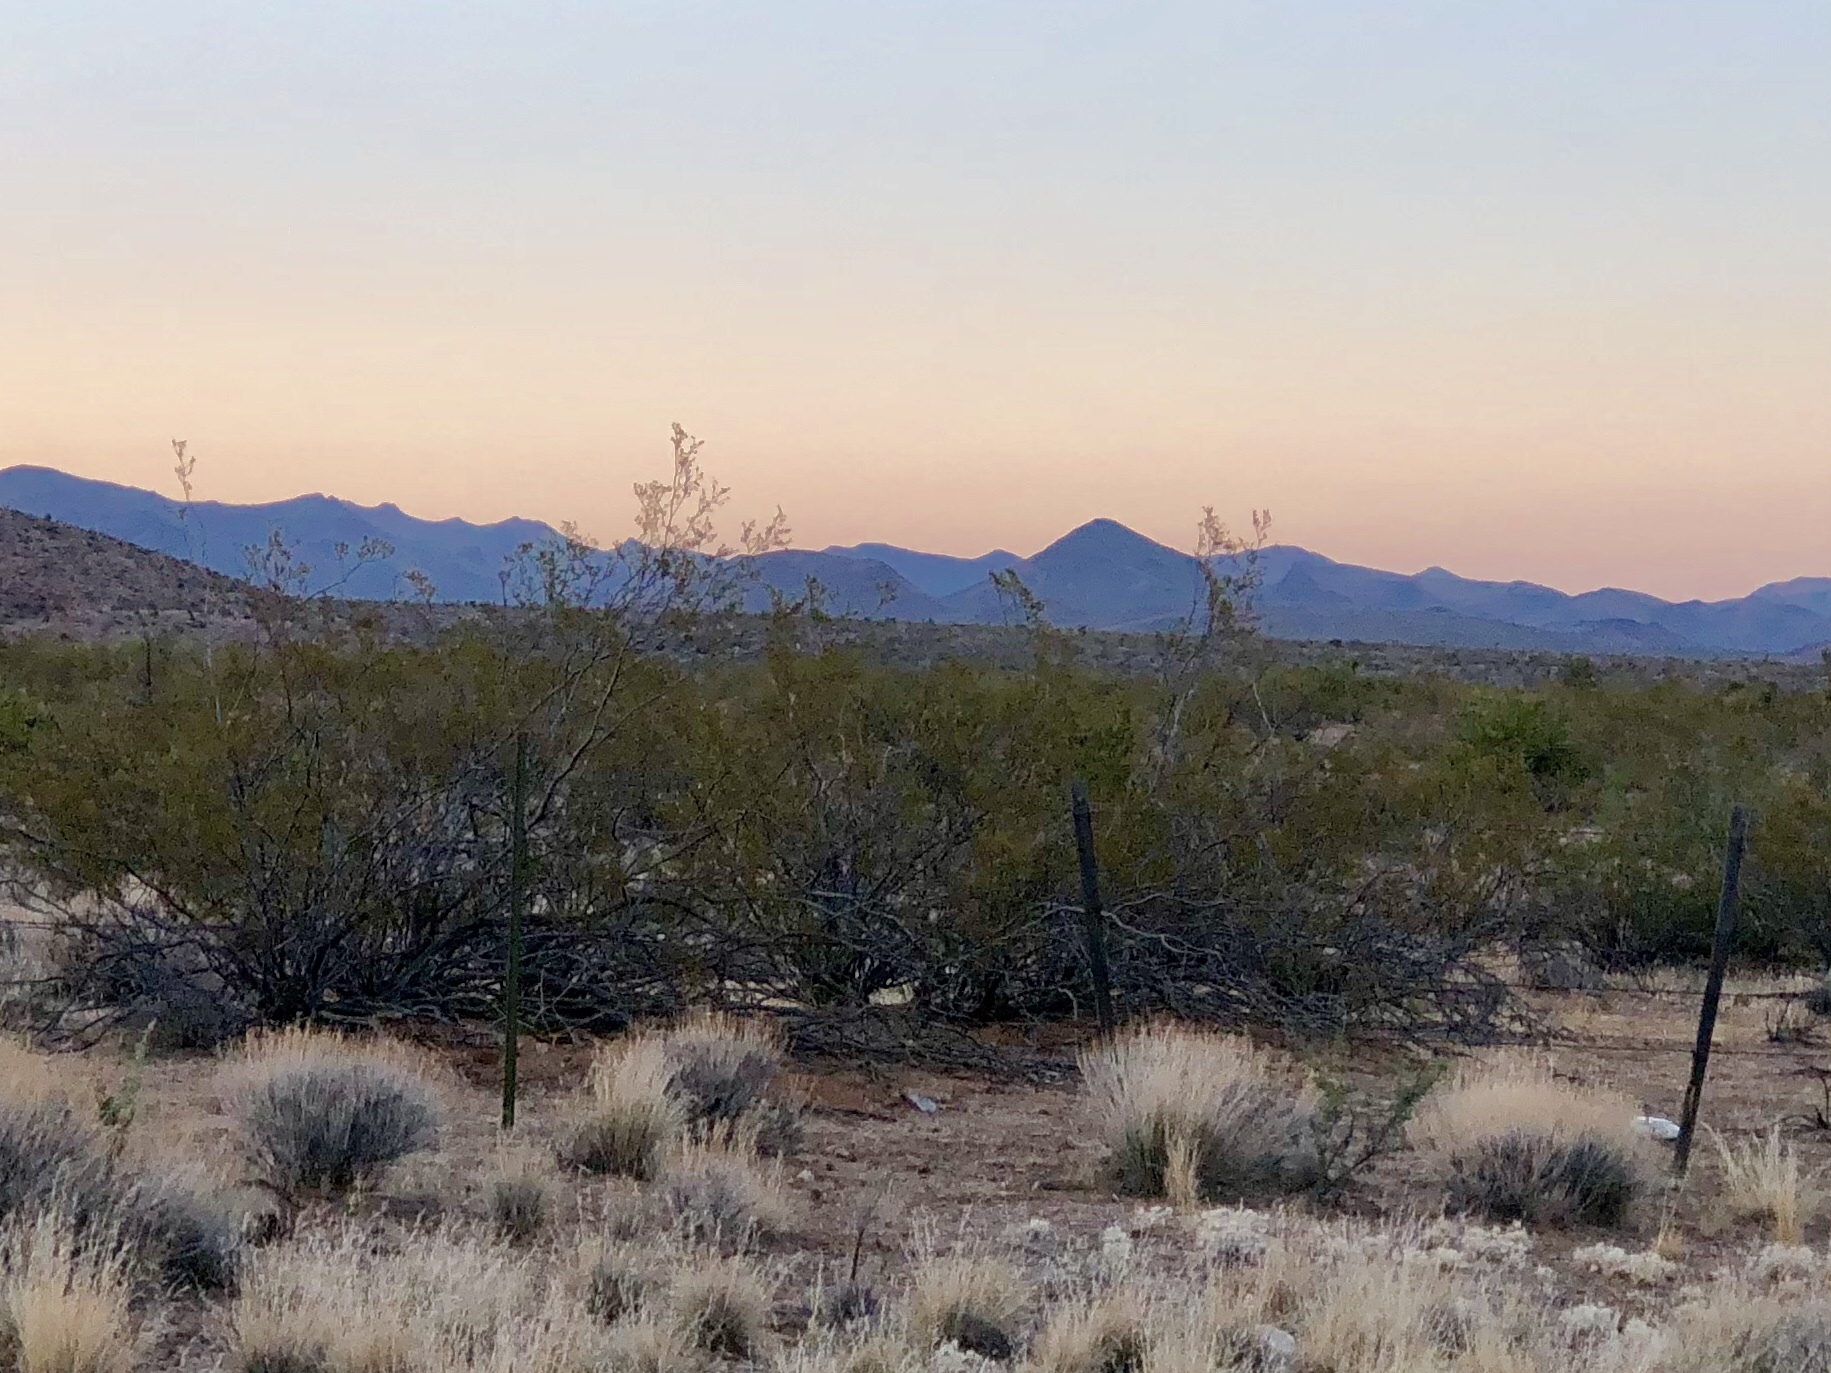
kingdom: Plantae
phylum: Tracheophyta
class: Magnoliopsida
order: Zygophyllales
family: Zygophyllaceae
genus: Larrea
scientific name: Larrea tridentata
